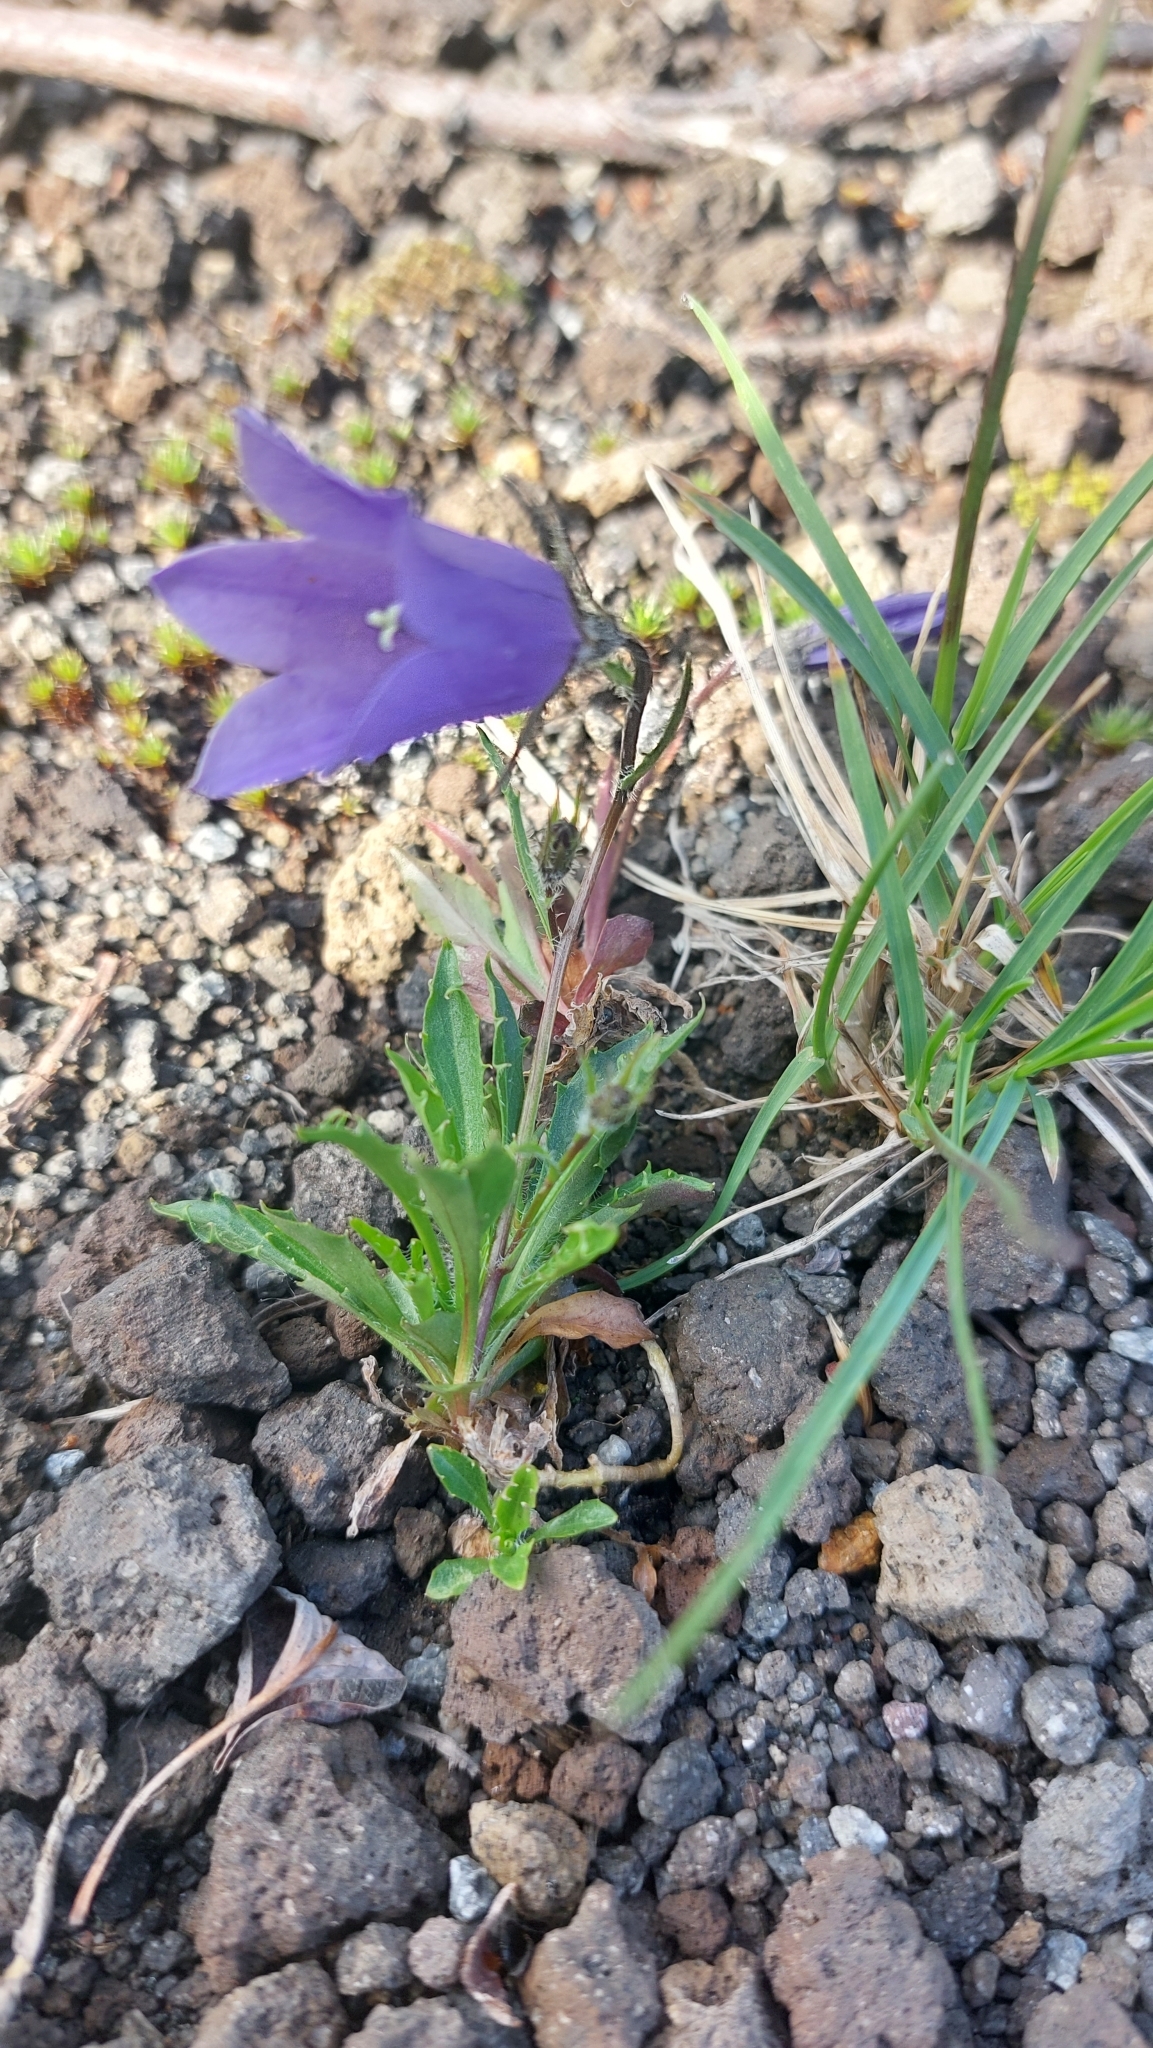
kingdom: Plantae
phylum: Tracheophyta
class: Magnoliopsida
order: Asterales
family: Campanulaceae
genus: Campanula
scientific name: Campanula lasiocarpa
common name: Mountain harebell
